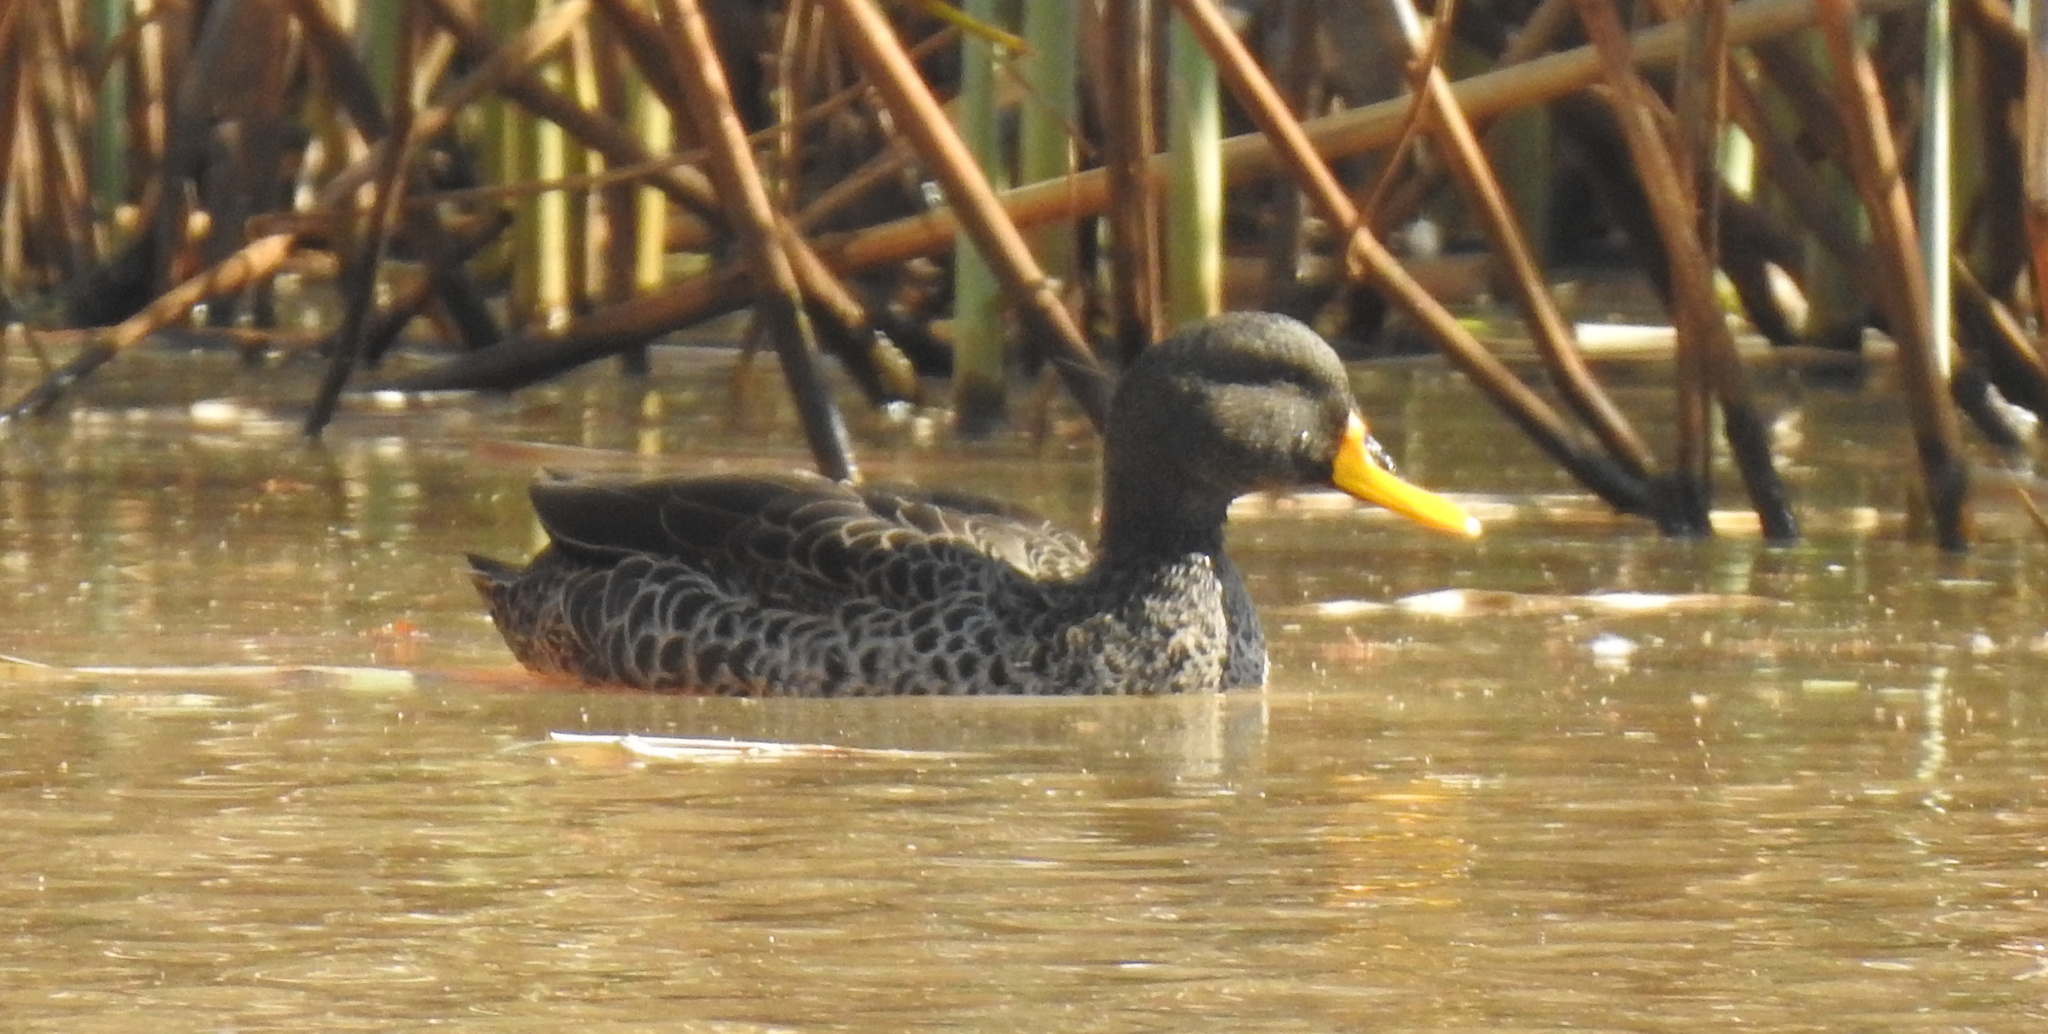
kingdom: Animalia
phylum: Chordata
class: Aves
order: Anseriformes
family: Anatidae
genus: Anas
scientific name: Anas undulata
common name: Yellow-billed duck
